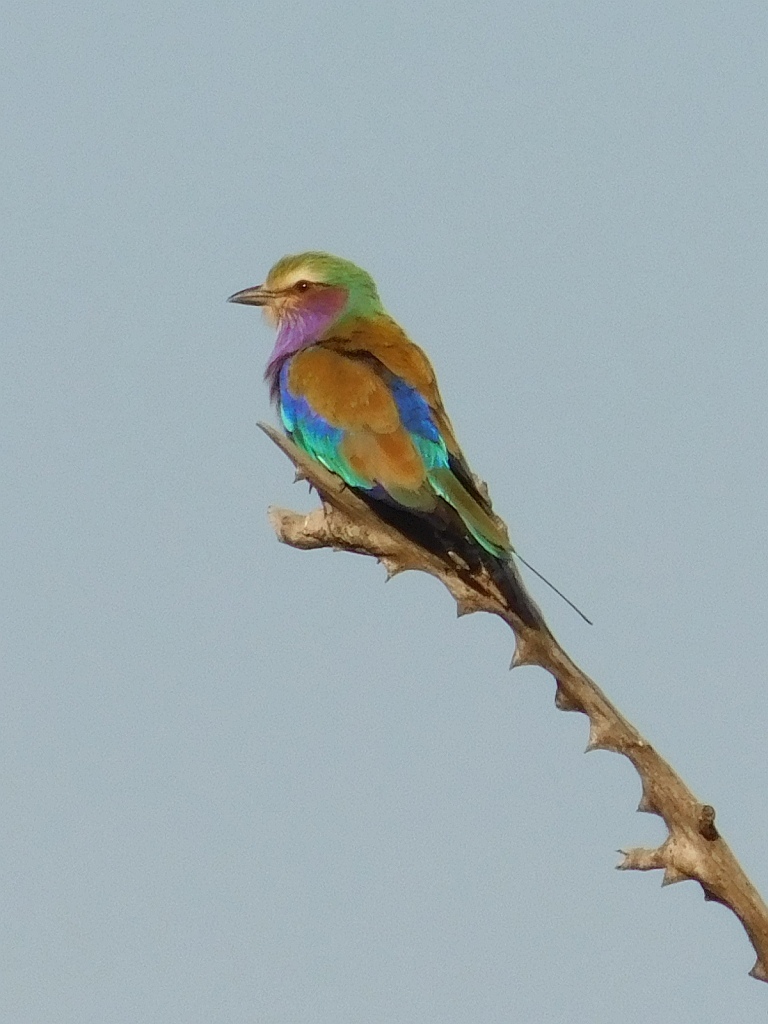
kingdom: Animalia
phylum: Chordata
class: Aves
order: Coraciiformes
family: Coraciidae
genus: Coracias
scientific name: Coracias caudatus
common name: Lilac-breasted roller
